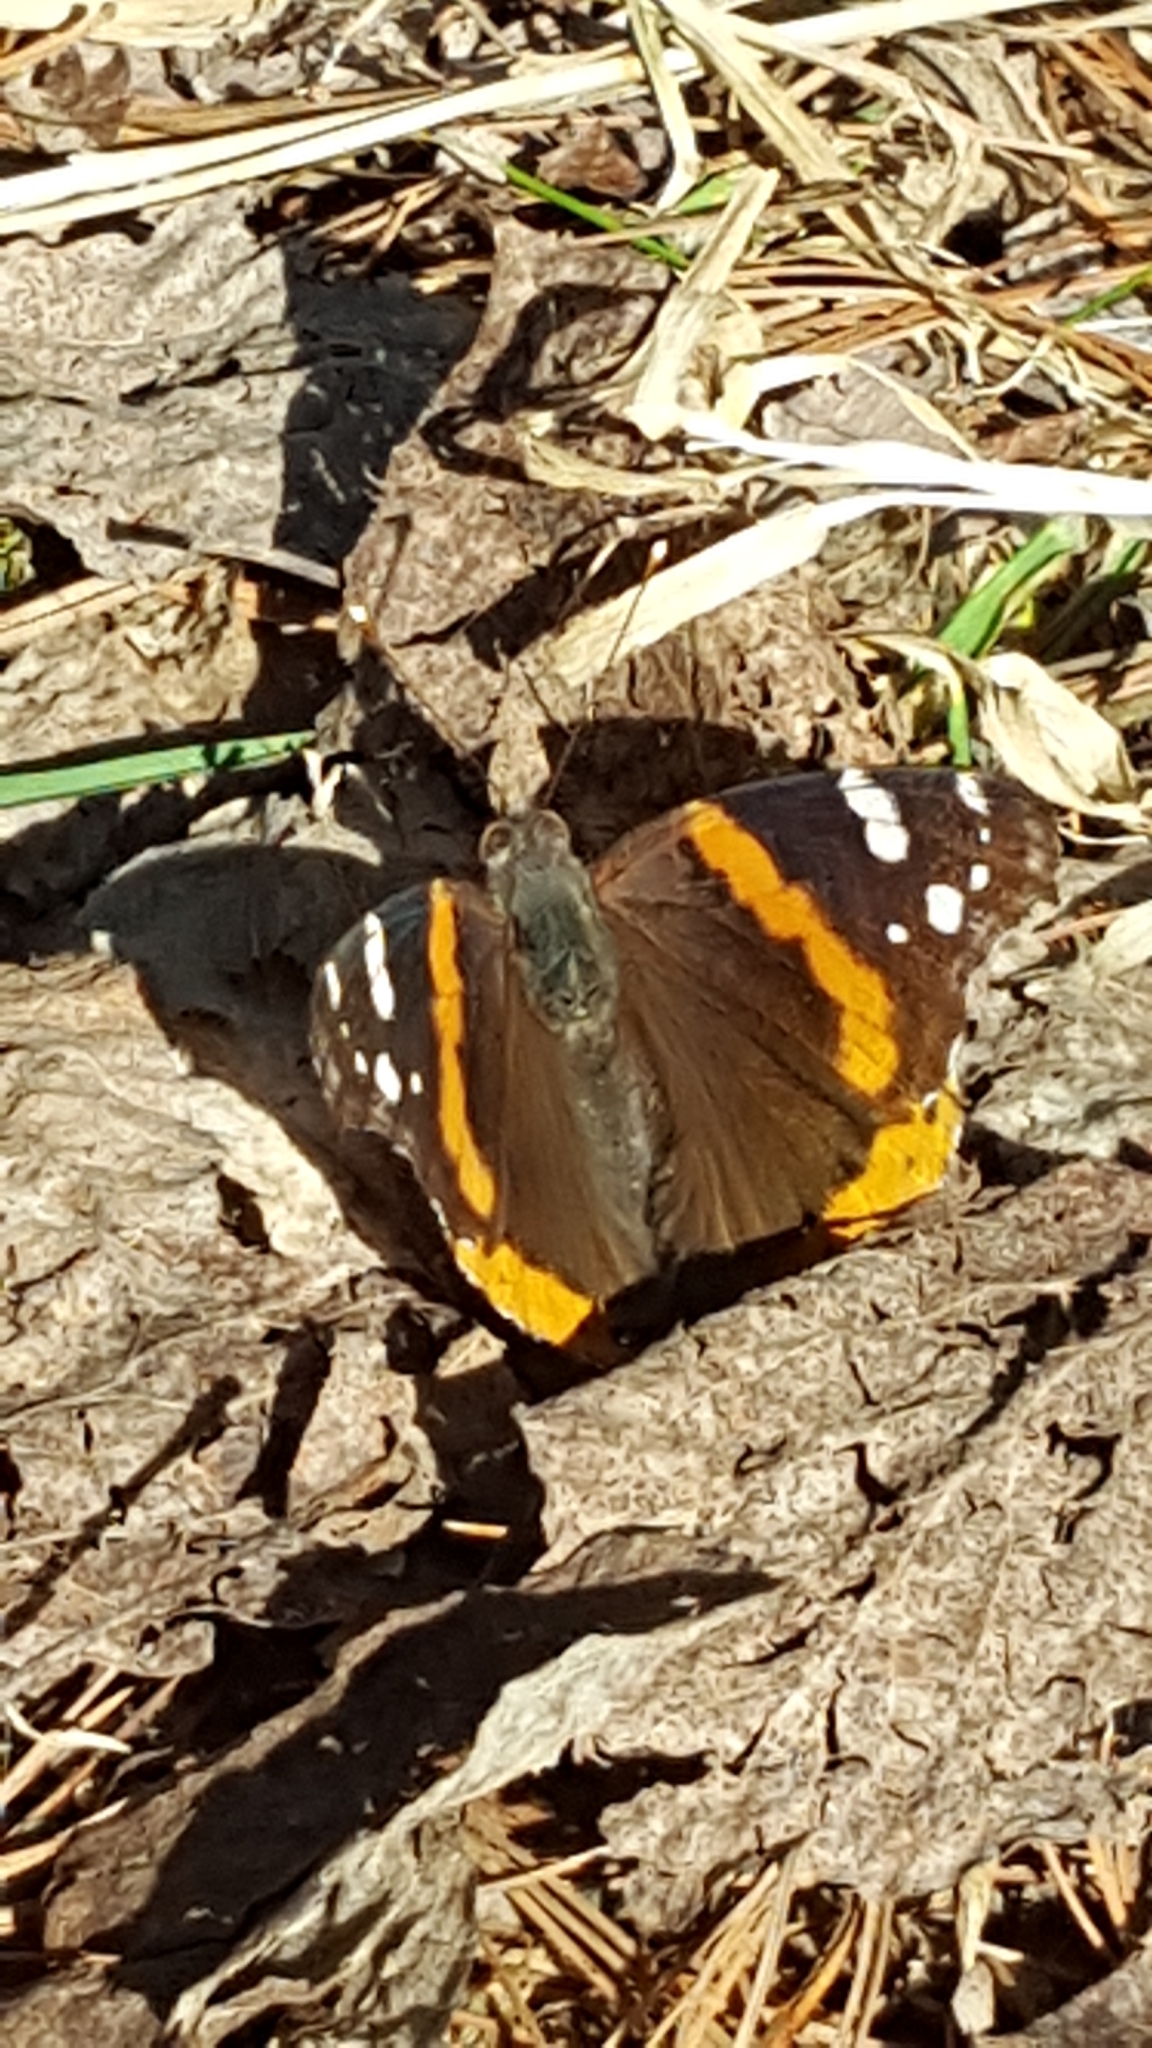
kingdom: Animalia
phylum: Arthropoda
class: Insecta
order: Lepidoptera
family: Nymphalidae
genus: Vanessa
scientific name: Vanessa atalanta
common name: Red admiral
